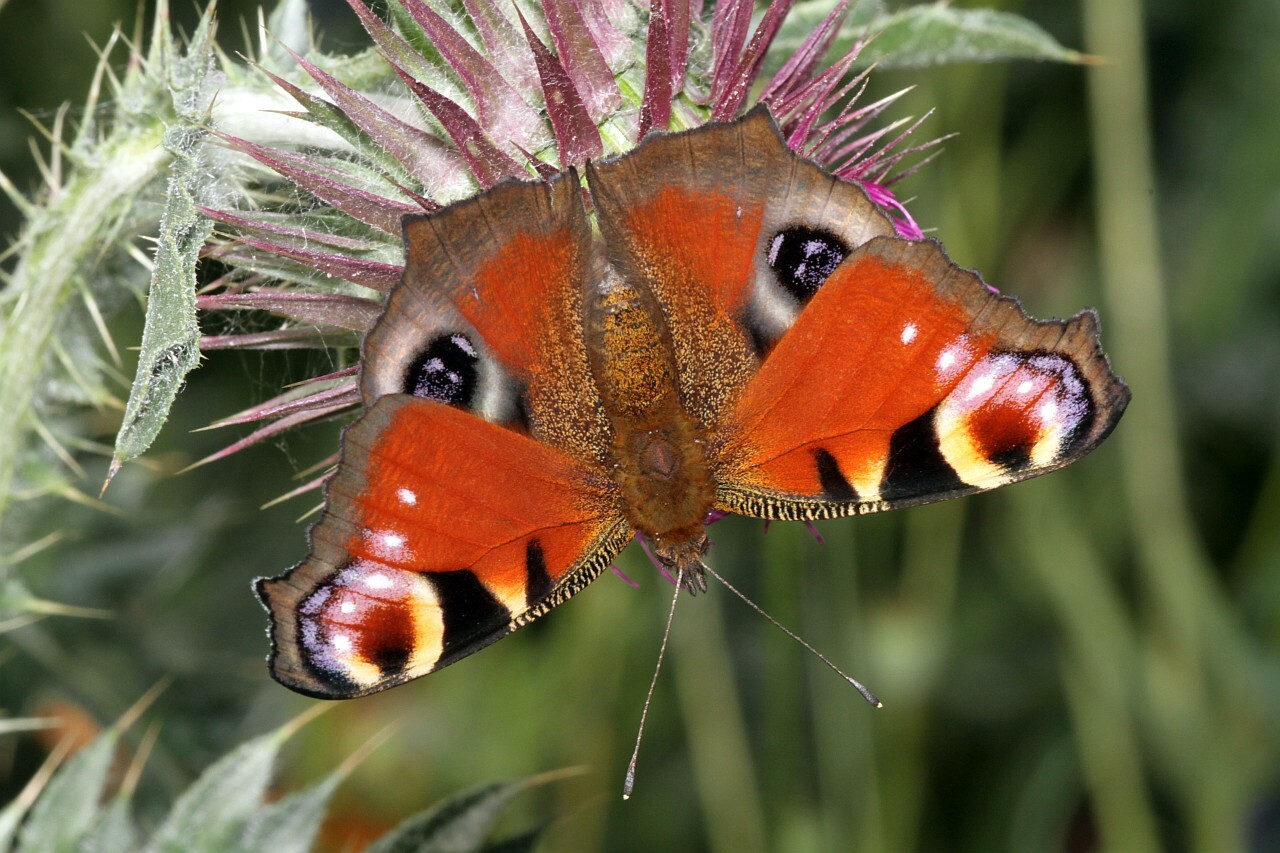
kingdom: Animalia
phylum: Arthropoda
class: Insecta
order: Lepidoptera
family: Nymphalidae
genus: Aglais
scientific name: Aglais io
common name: Peacock
